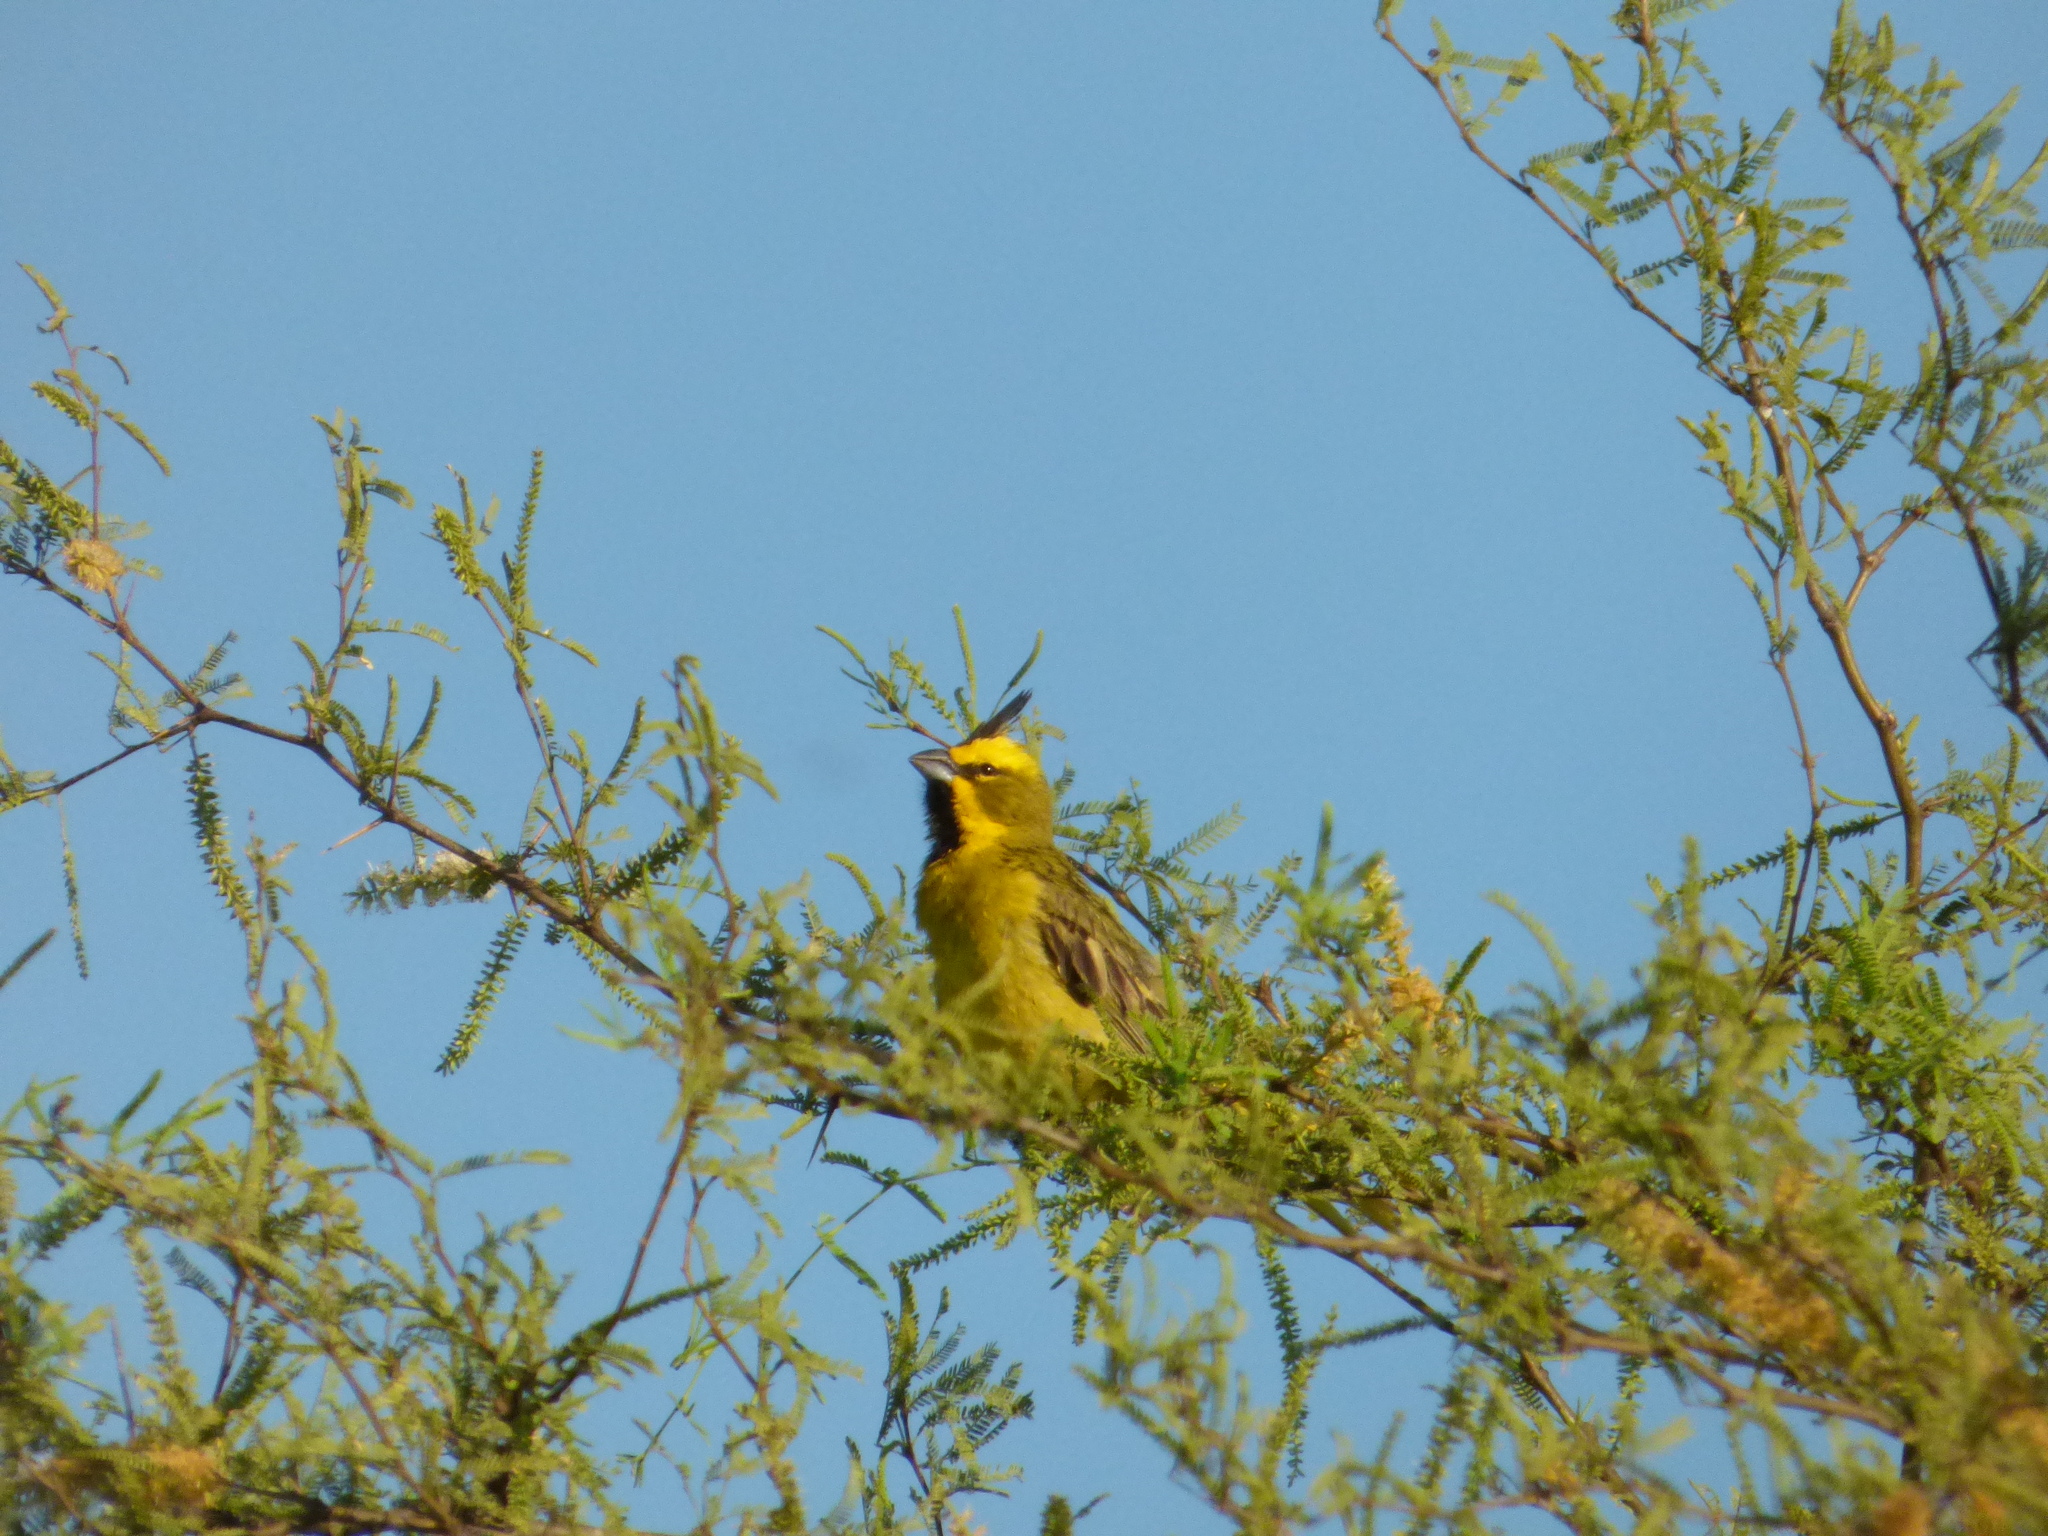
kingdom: Animalia
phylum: Chordata
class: Aves
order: Passeriformes
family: Thraupidae
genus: Gubernatrix
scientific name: Gubernatrix cristata
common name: Yellow cardinal
